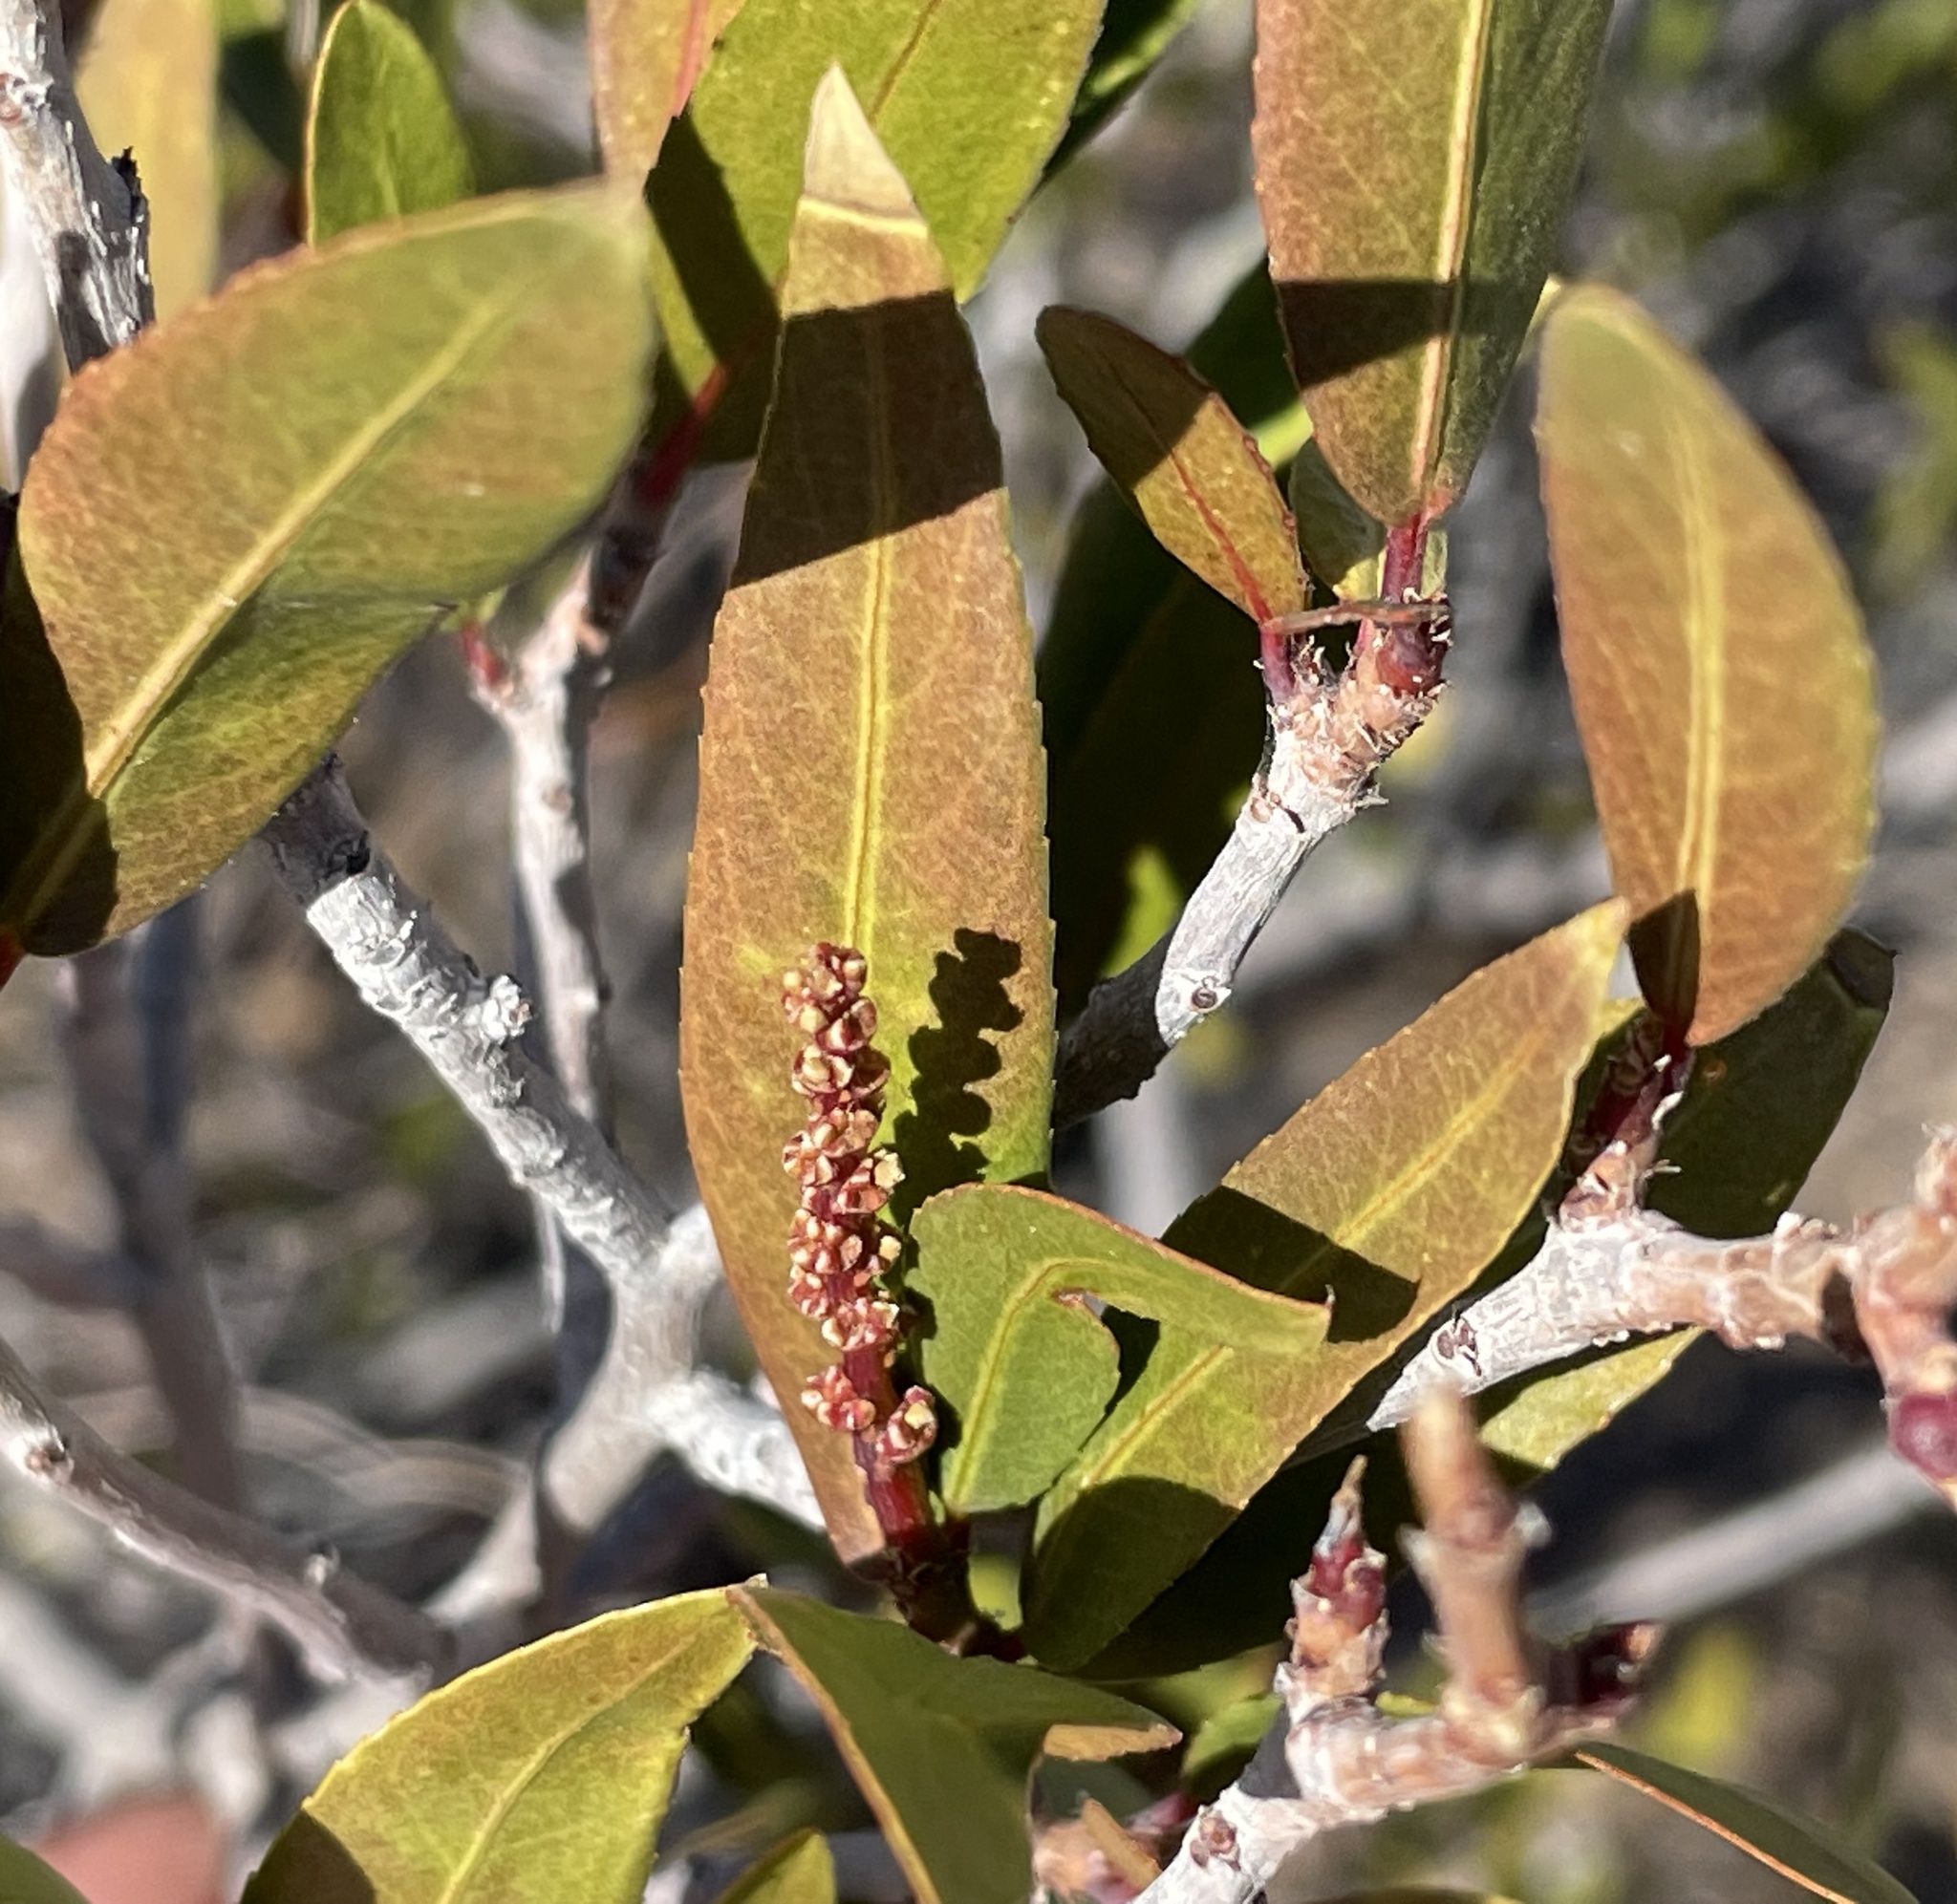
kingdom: Plantae
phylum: Tracheophyta
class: Magnoliopsida
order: Malpighiales
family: Euphorbiaceae
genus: Pleradenophora
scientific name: Pleradenophora bilocularis
